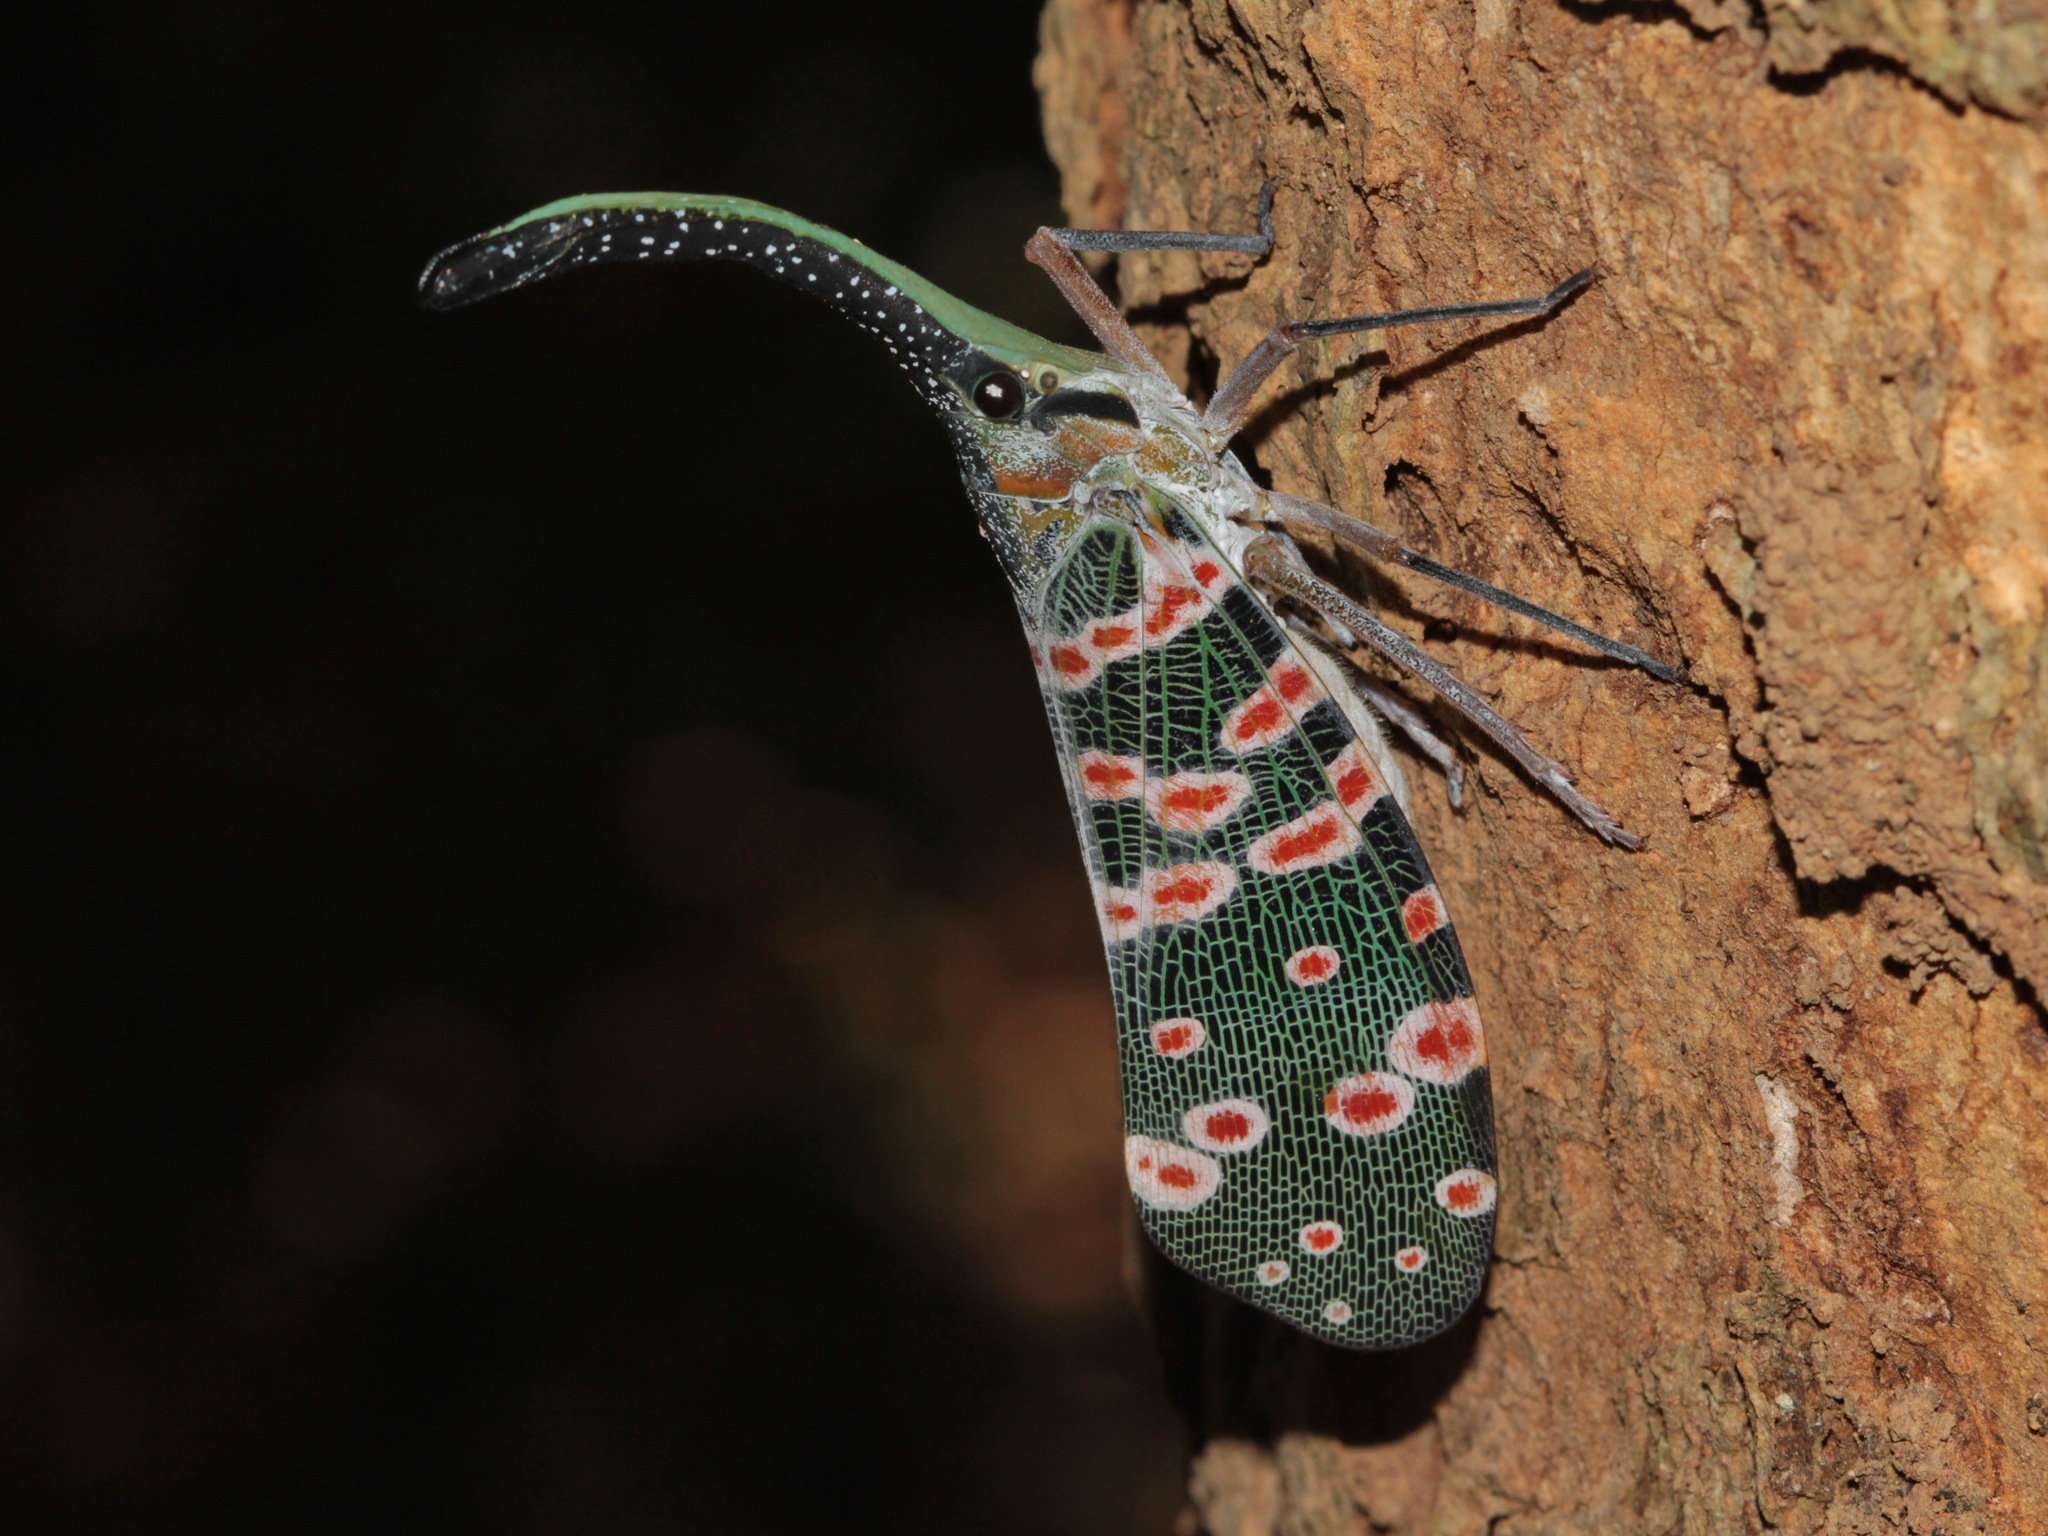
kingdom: Animalia
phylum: Arthropoda
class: Insecta
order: Hemiptera
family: Fulgoridae
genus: Pyrops
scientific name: Pyrops spinolae
